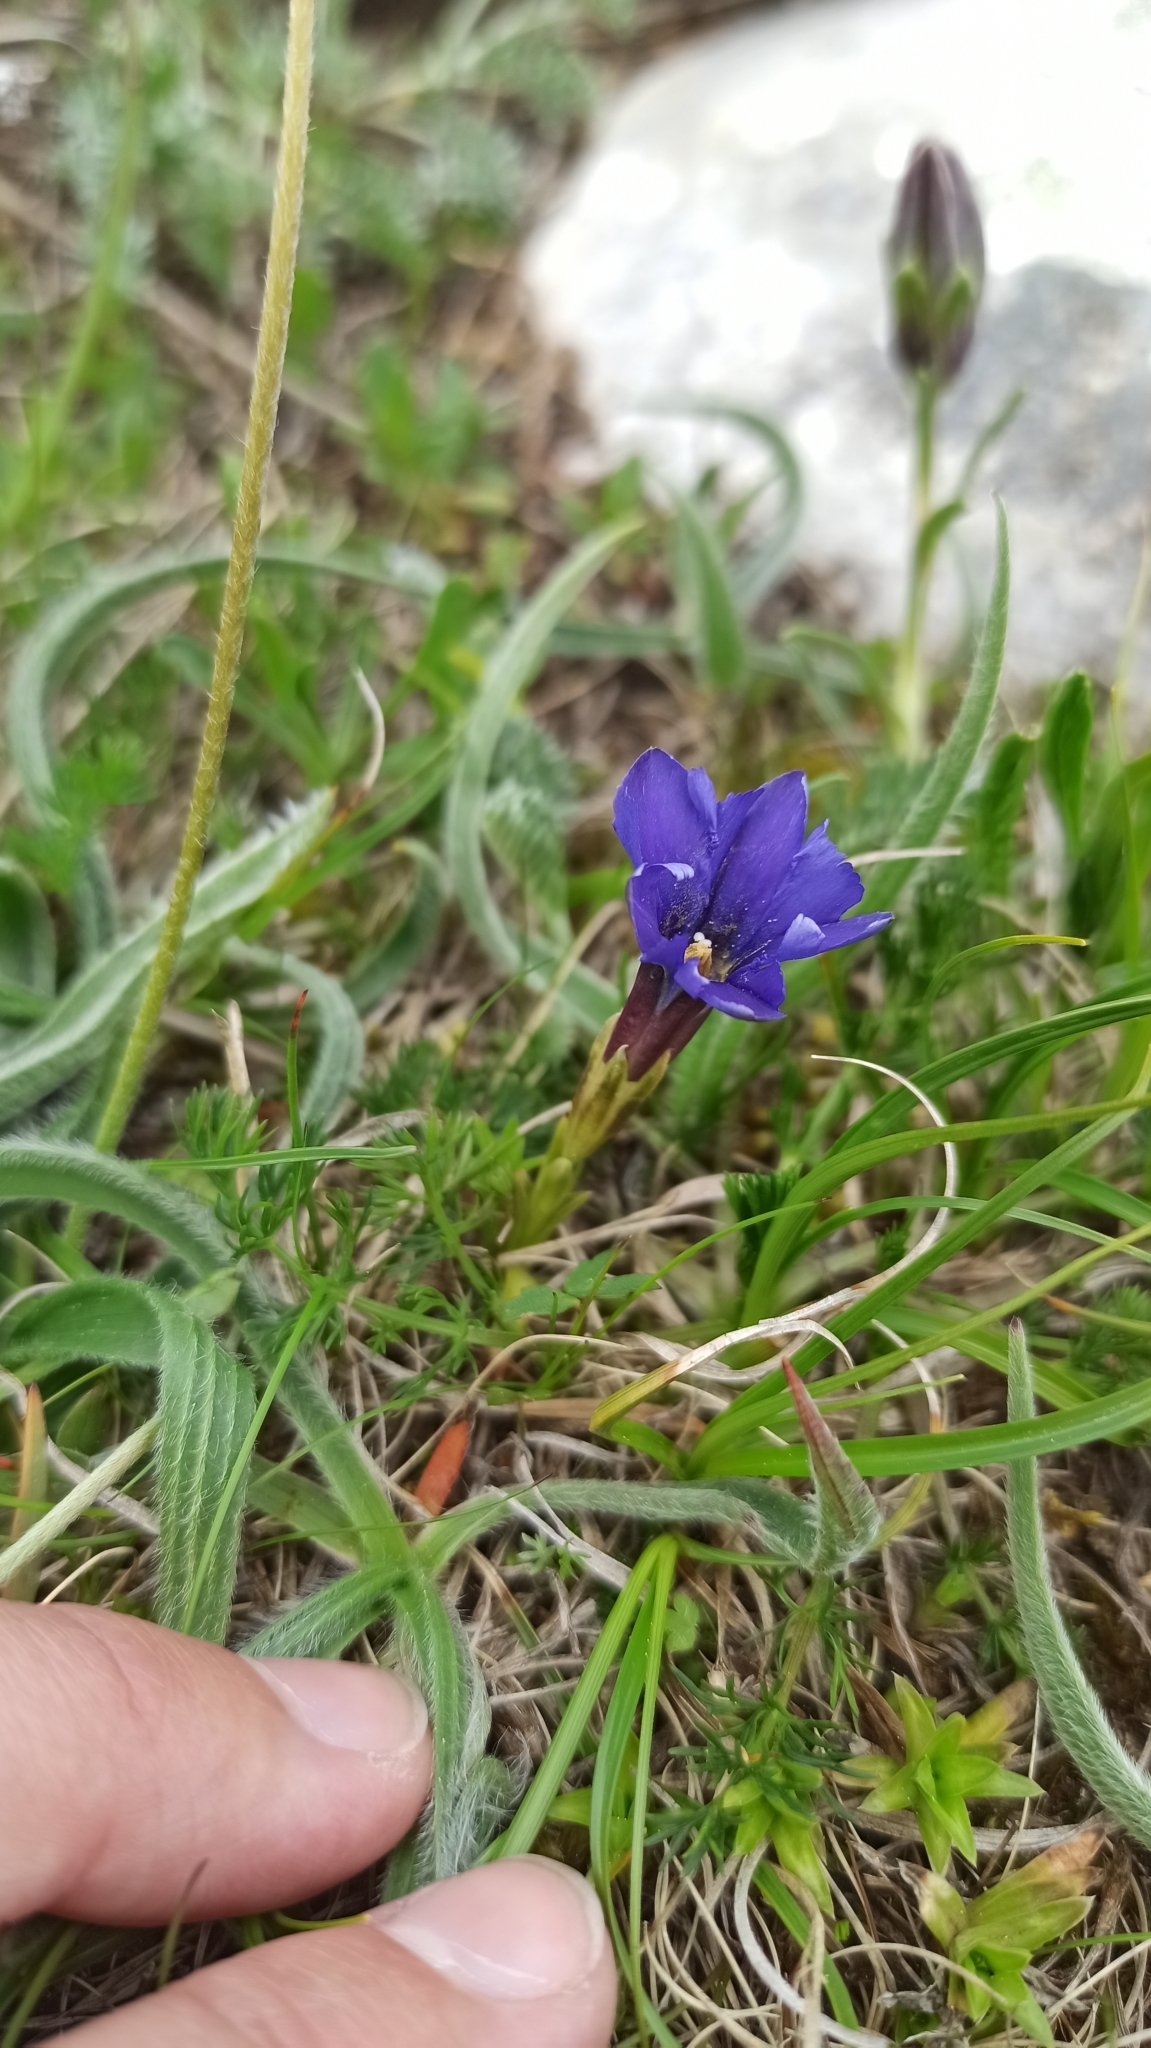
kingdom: Plantae
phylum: Tracheophyta
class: Magnoliopsida
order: Gentianales
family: Gentianaceae
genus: Gentiana
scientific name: Gentiana dshimilensis
